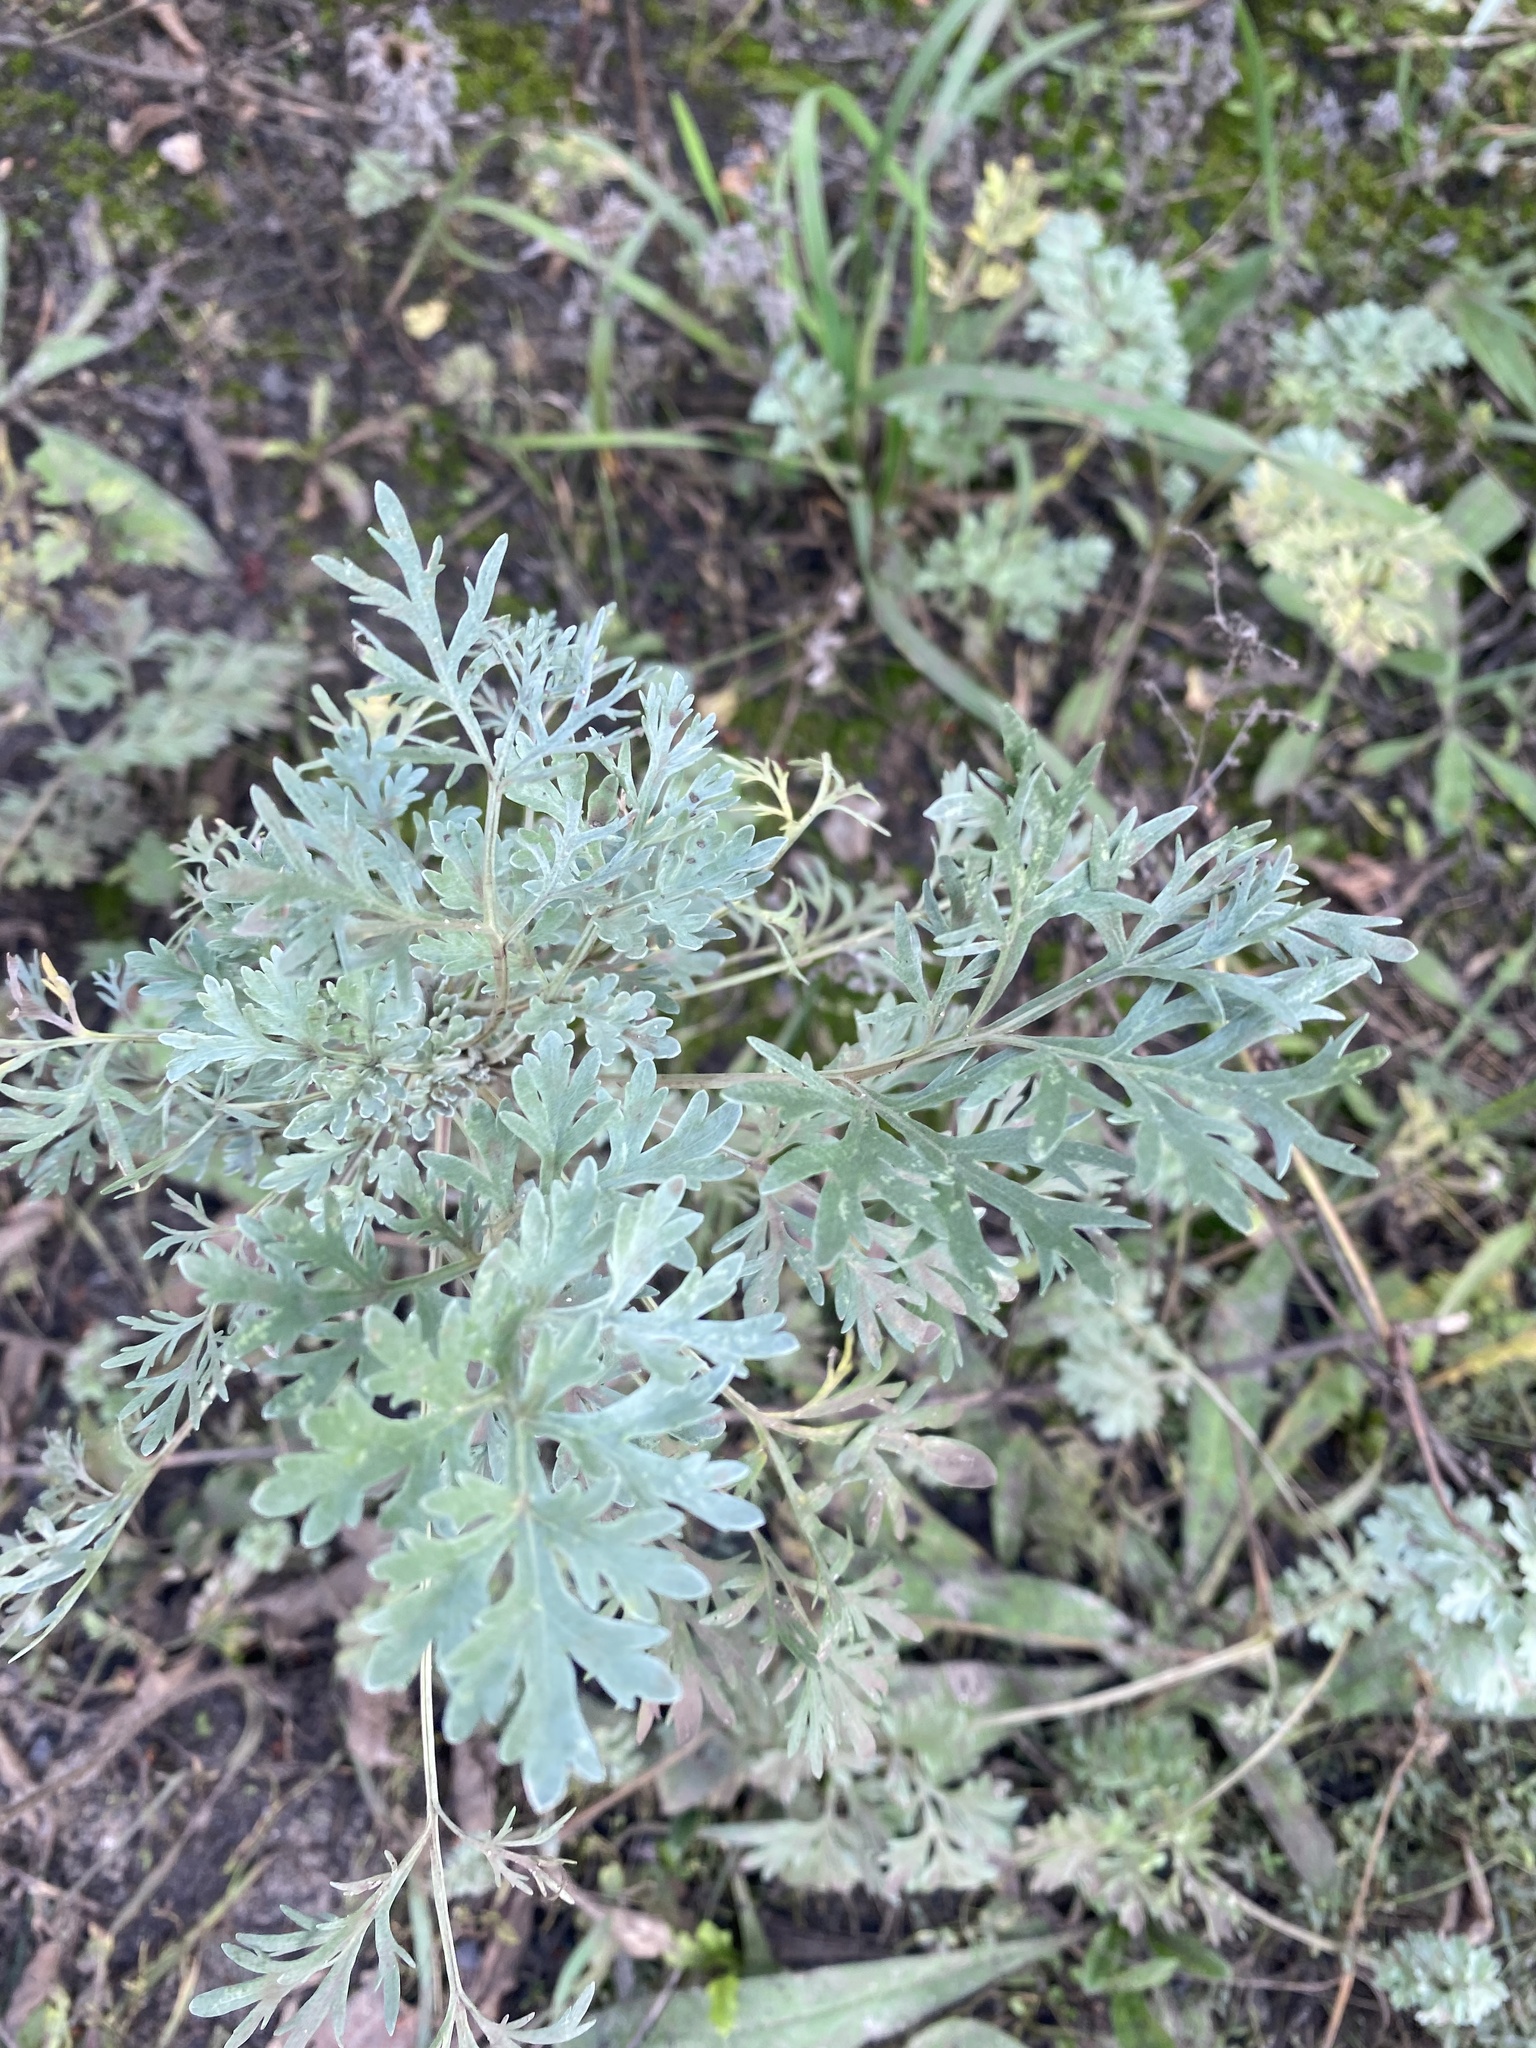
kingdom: Plantae
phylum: Tracheophyta
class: Magnoliopsida
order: Asterales
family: Asteraceae
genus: Artemisia
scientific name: Artemisia absinthium
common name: Wormwood
